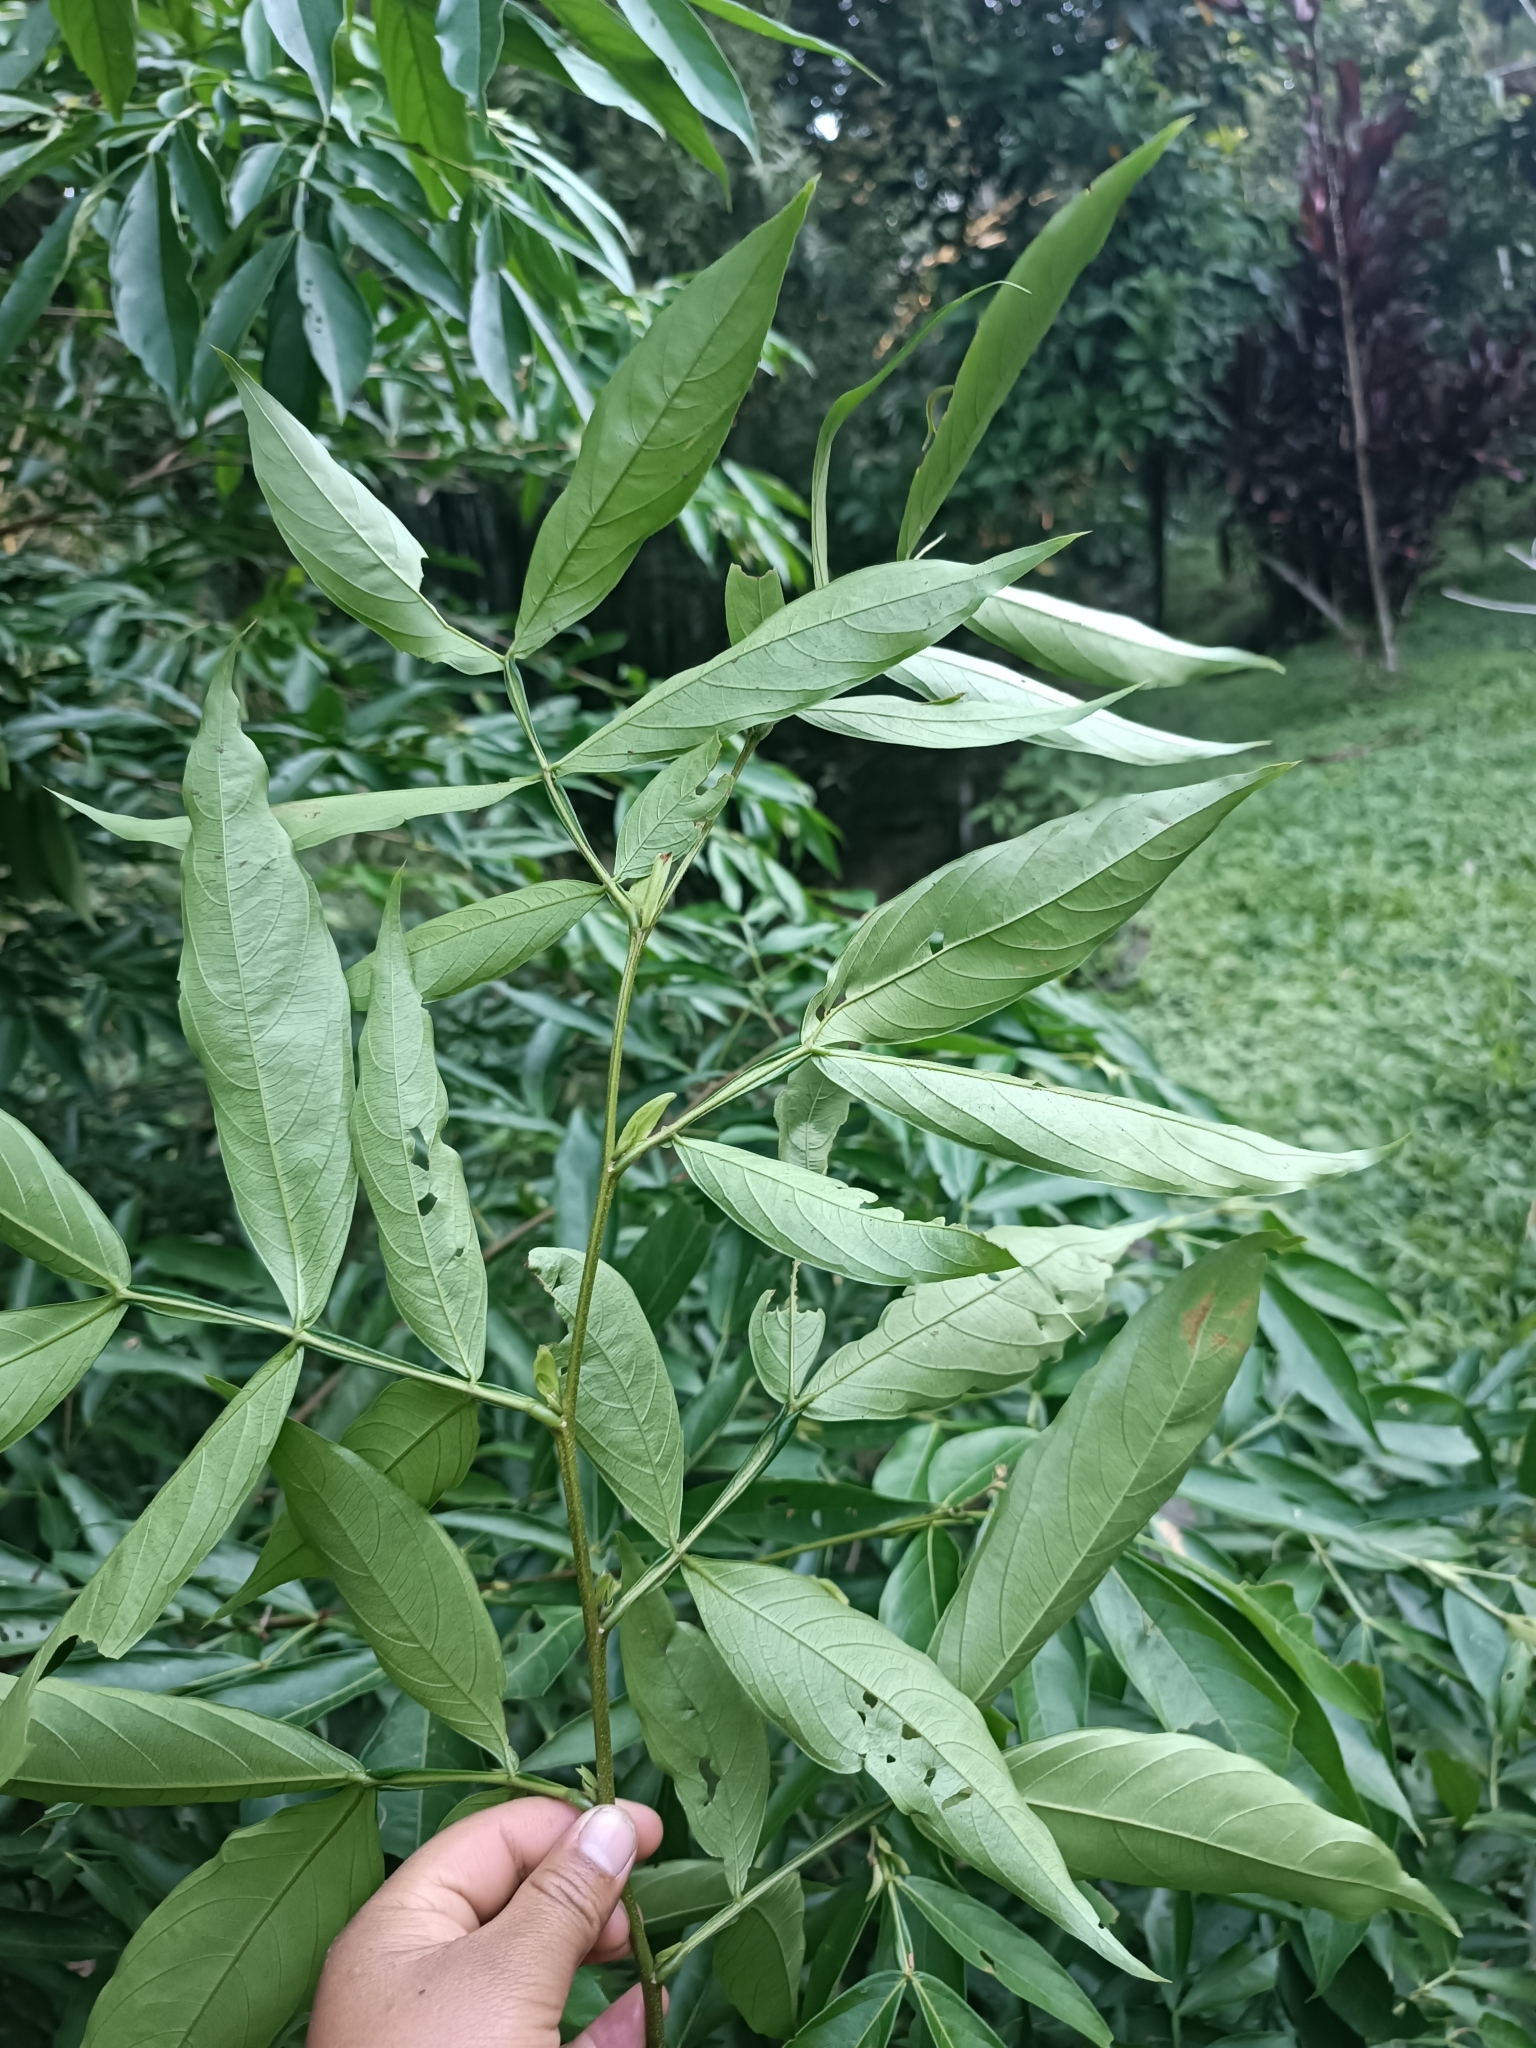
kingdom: Plantae
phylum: Tracheophyta
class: Magnoliopsida
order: Fabales
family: Fabaceae
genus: Inga
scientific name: Inga marginata
